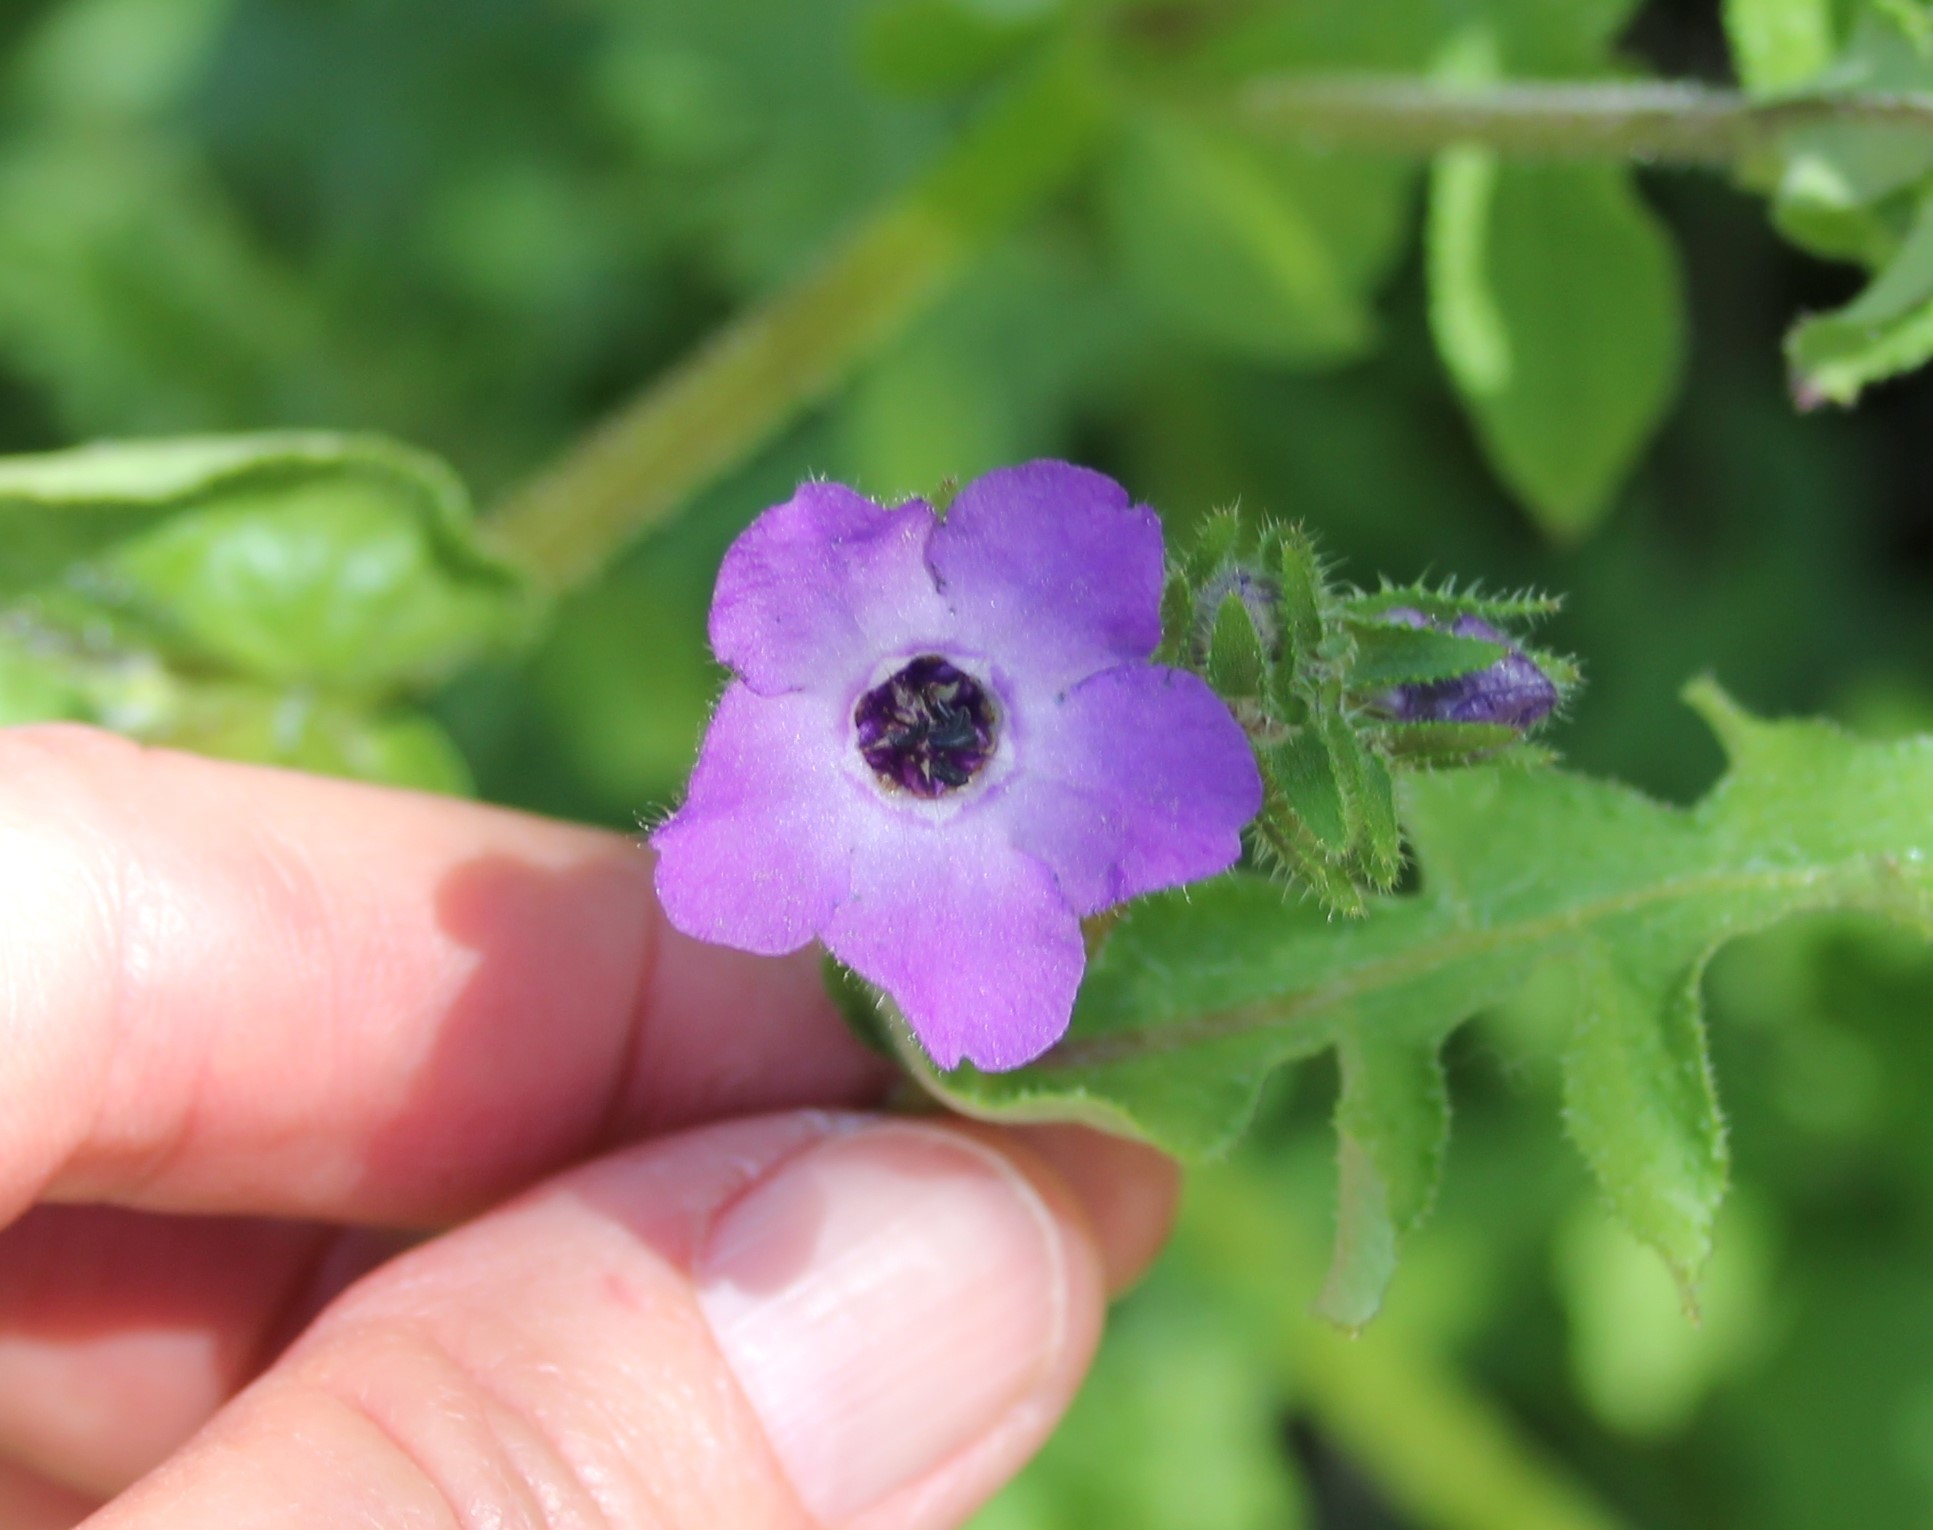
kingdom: Plantae
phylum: Tracheophyta
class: Magnoliopsida
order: Boraginales
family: Hydrophyllaceae
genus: Pholistoma
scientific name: Pholistoma auritum
